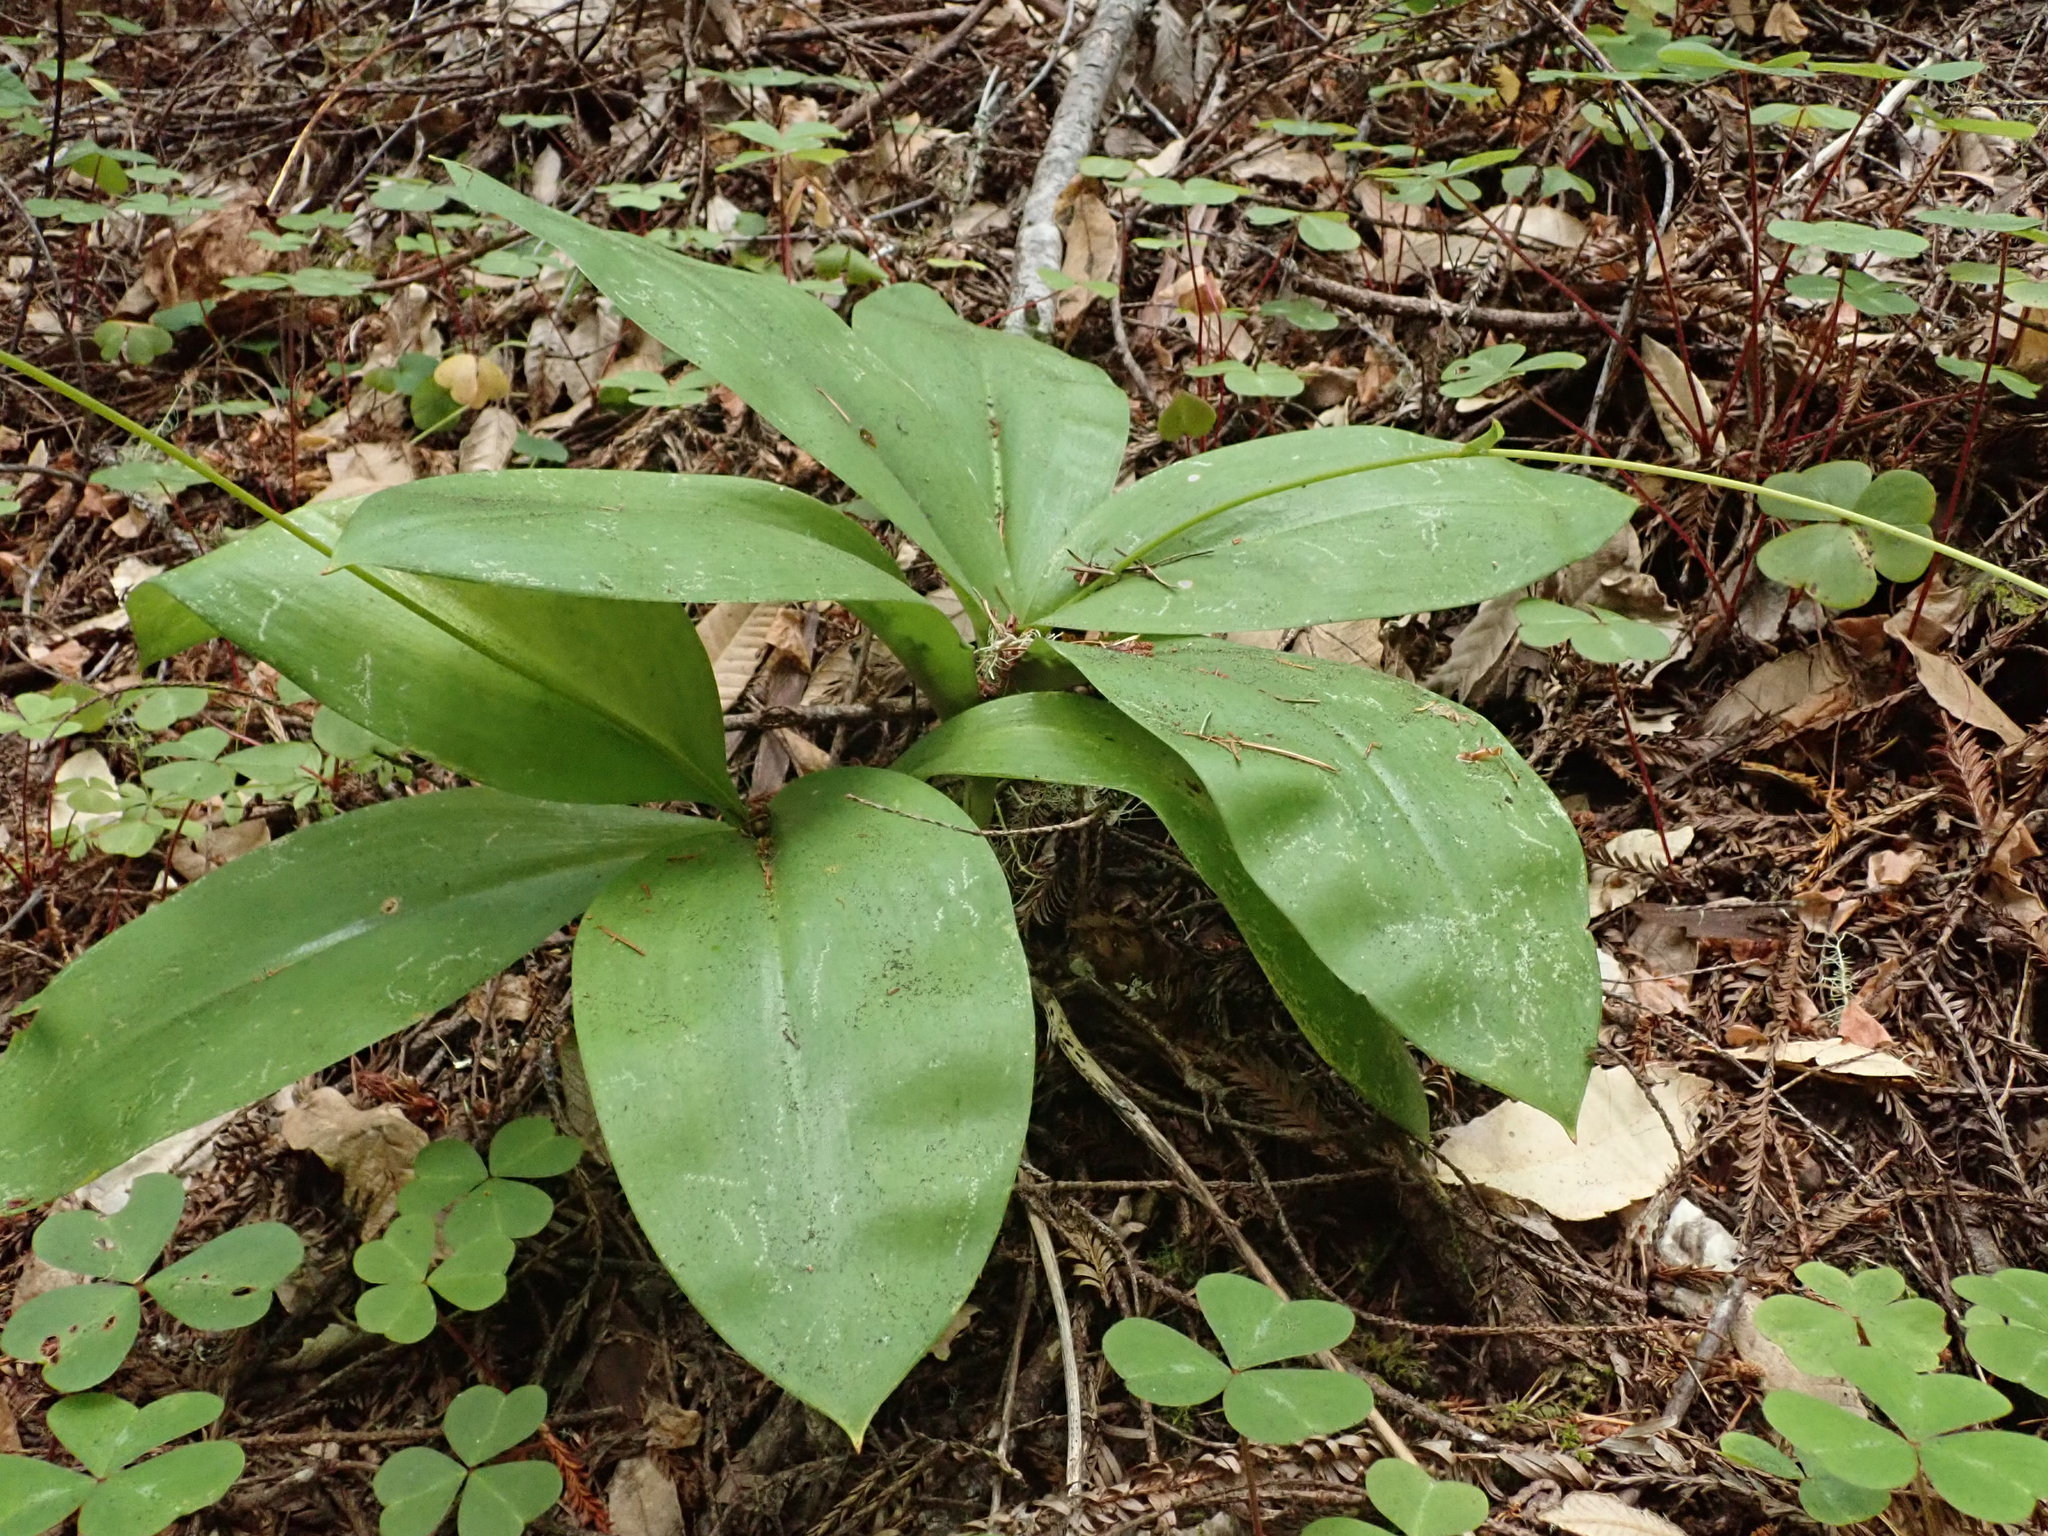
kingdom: Plantae
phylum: Tracheophyta
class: Liliopsida
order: Liliales
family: Liliaceae
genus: Clintonia
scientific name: Clintonia andrewsiana
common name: Red clintonia
